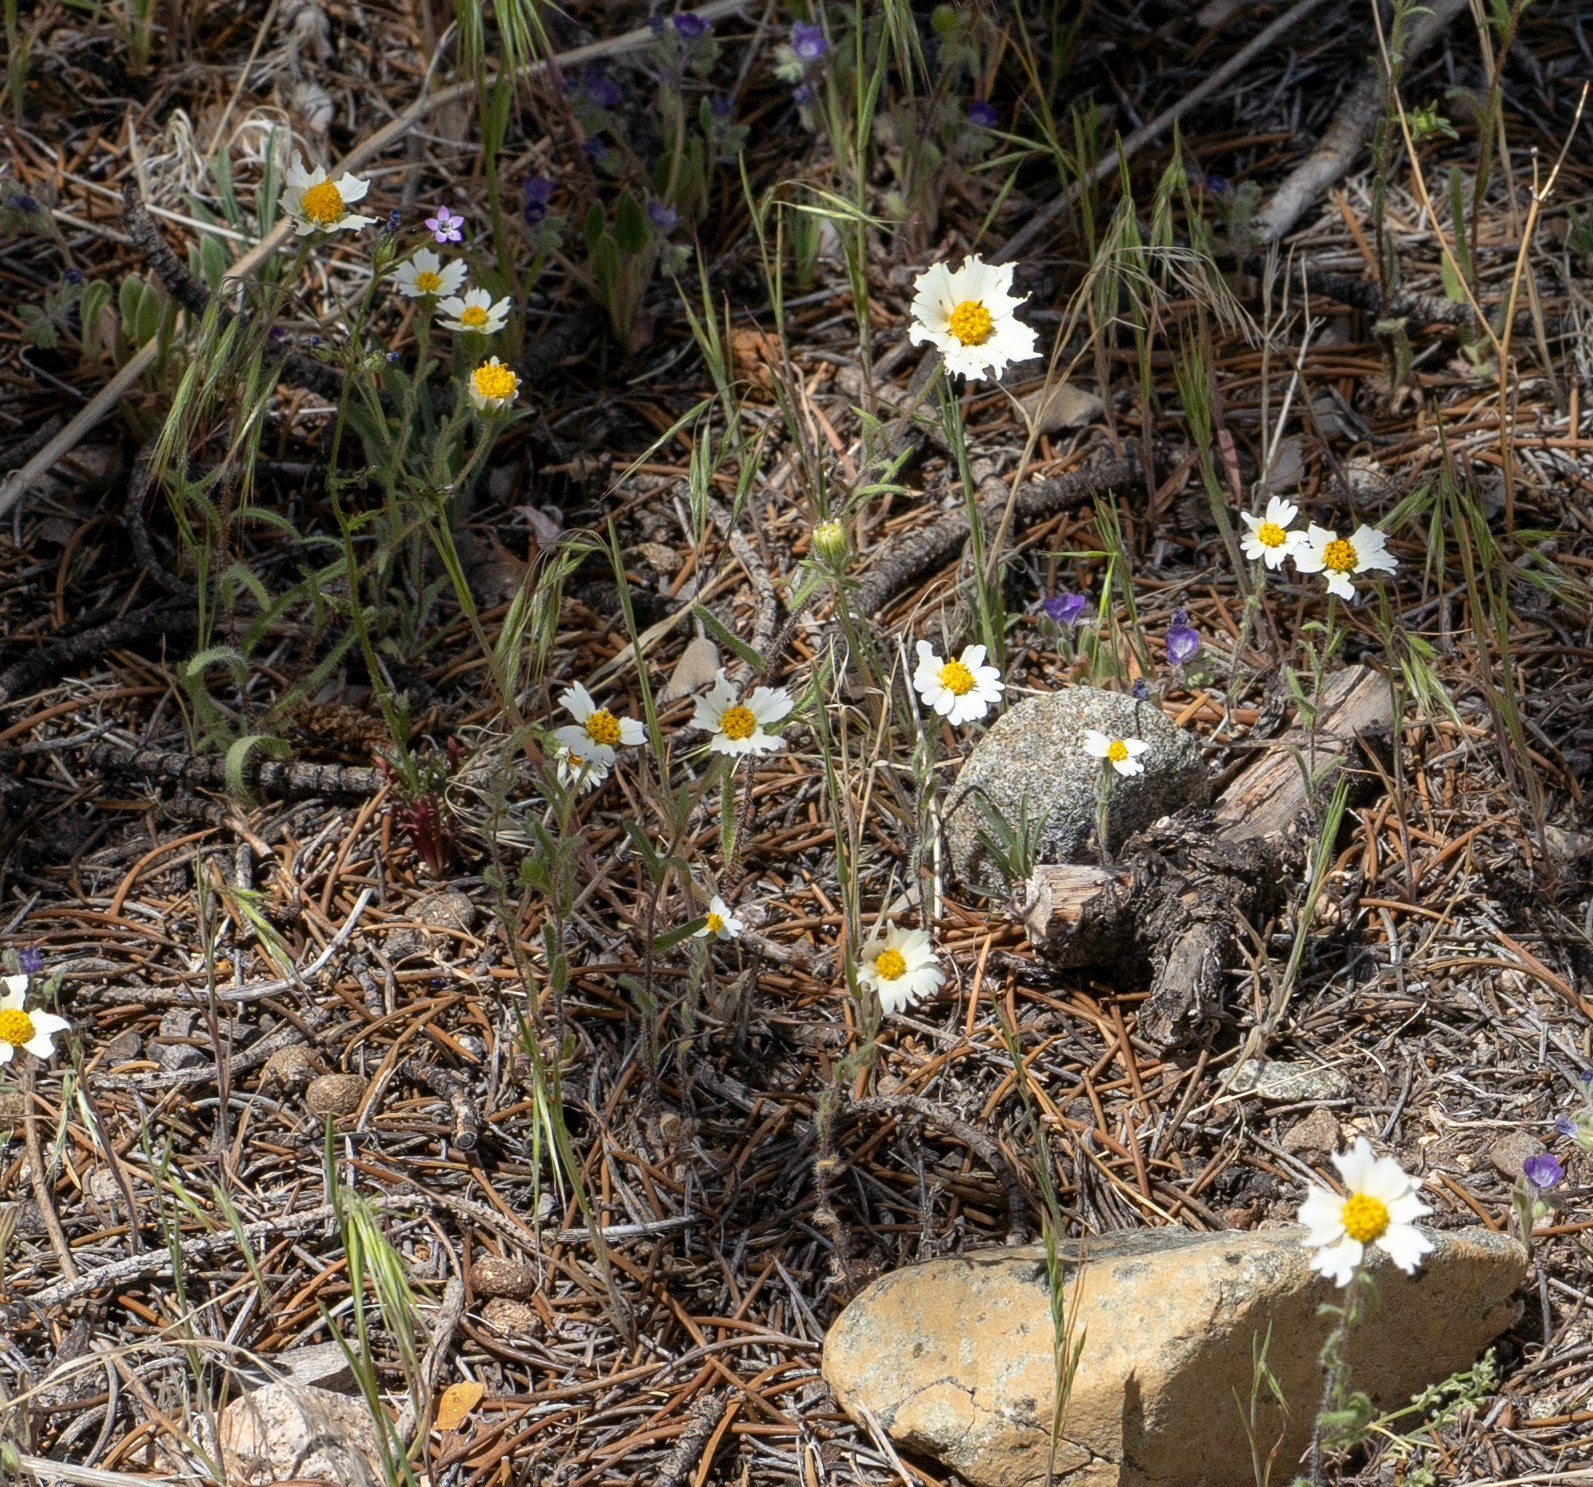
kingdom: Plantae
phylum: Tracheophyta
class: Magnoliopsida
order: Asterales
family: Asteraceae
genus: Layia
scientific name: Layia glandulosa
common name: White layia
